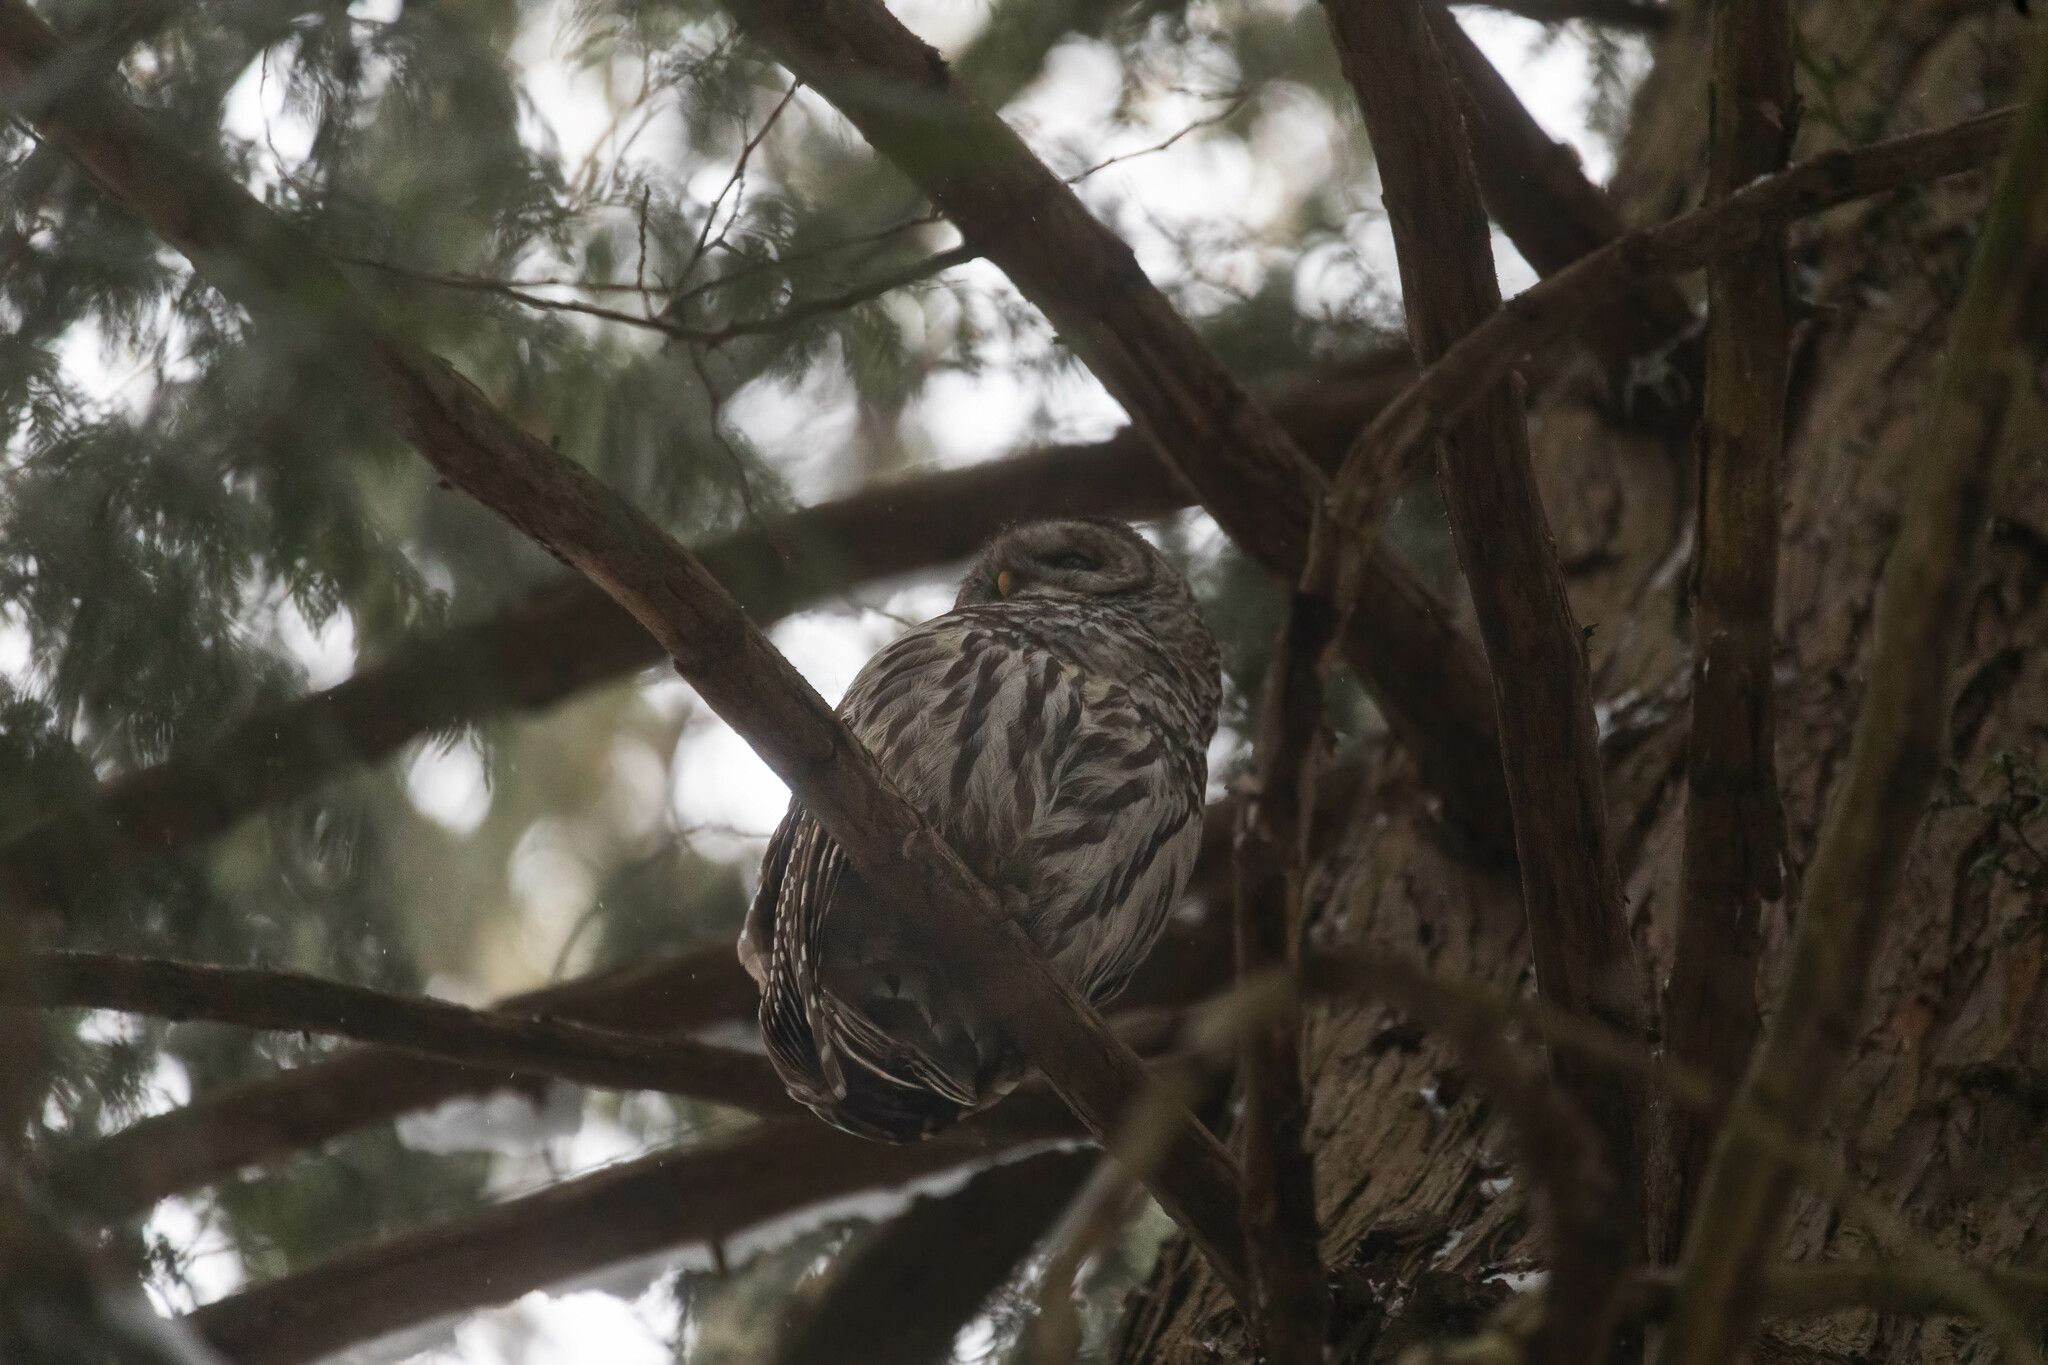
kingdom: Animalia
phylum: Chordata
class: Aves
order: Strigiformes
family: Strigidae
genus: Strix
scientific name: Strix varia
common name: Barred owl
